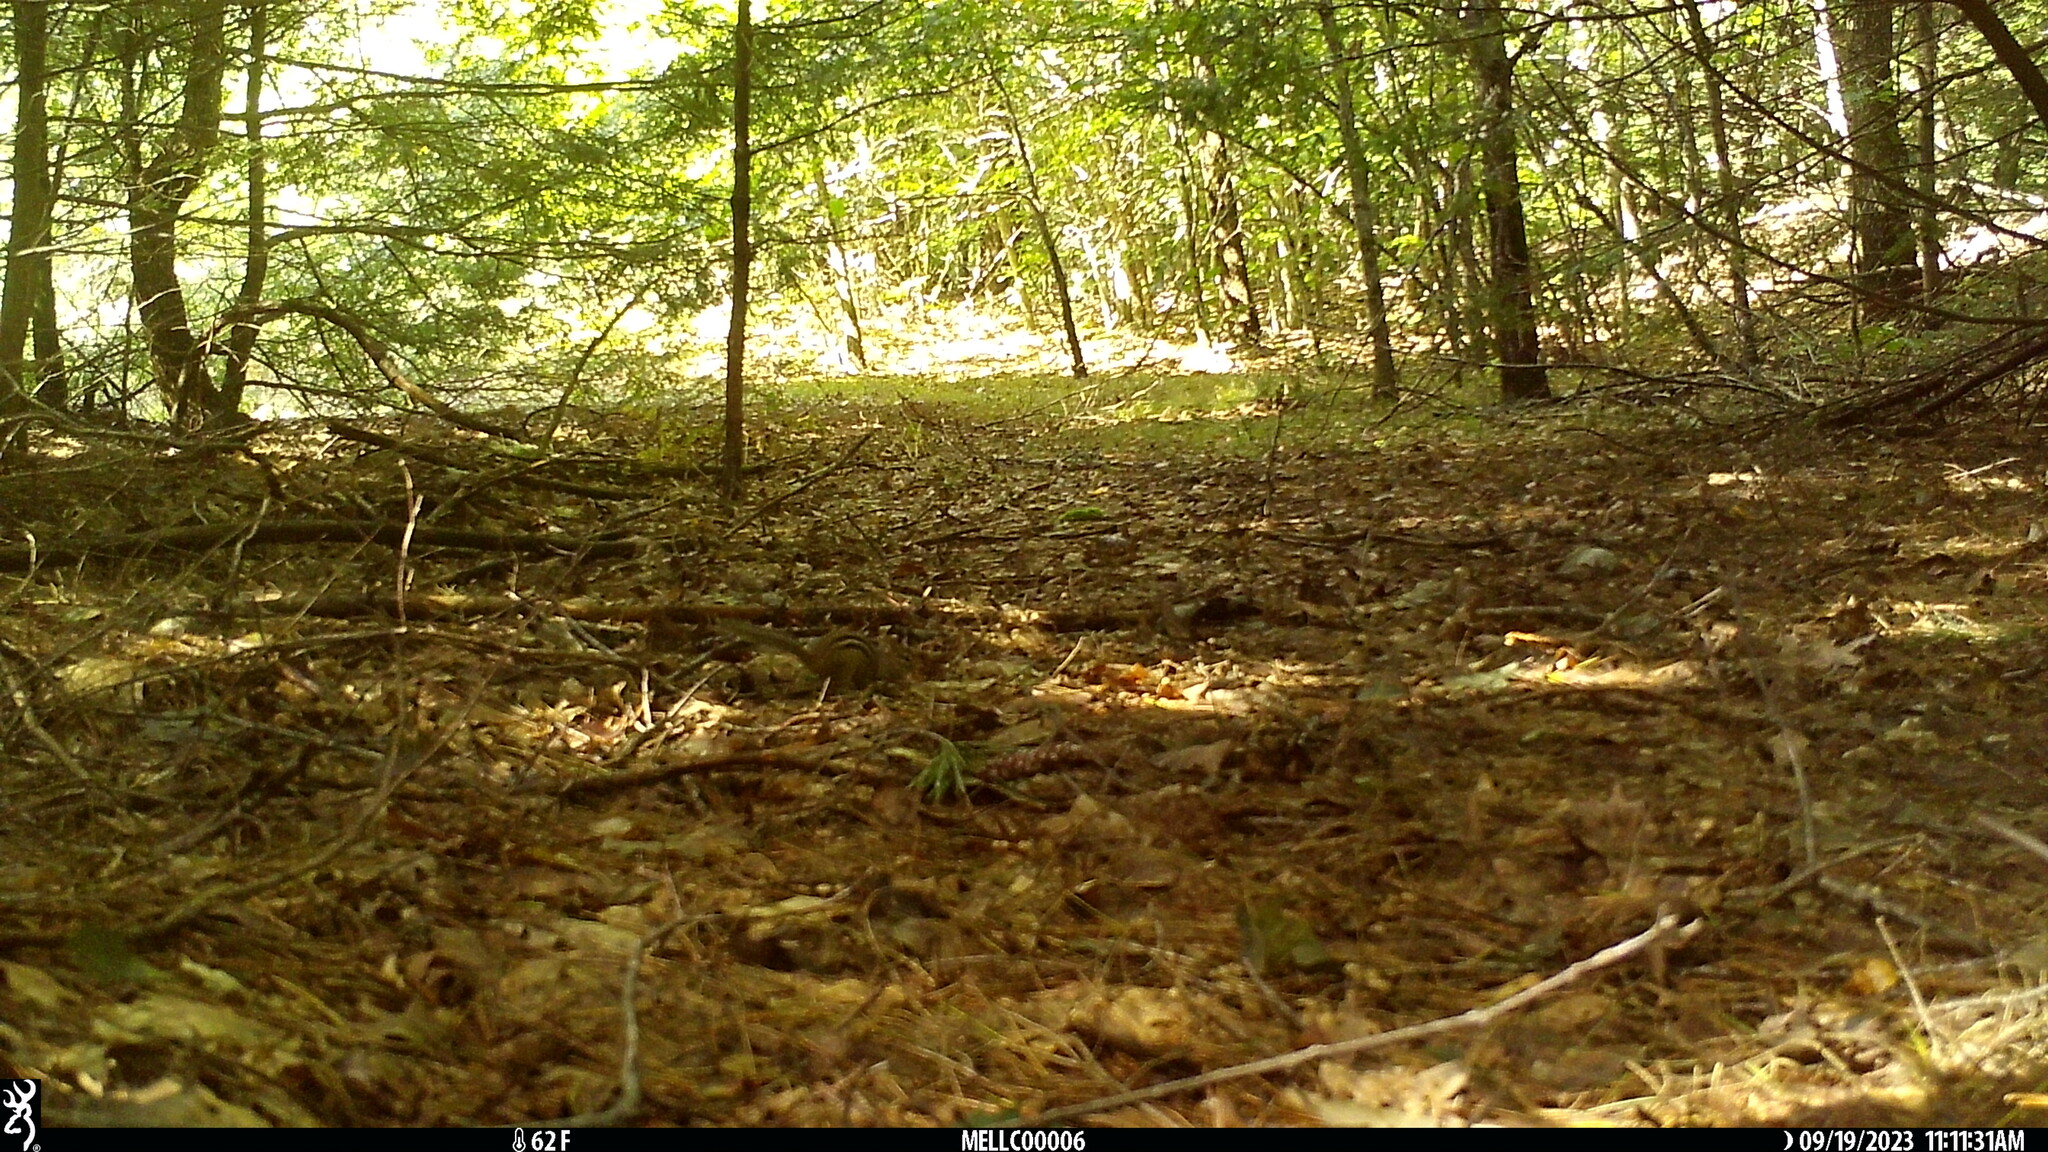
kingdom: Animalia
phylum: Chordata
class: Mammalia
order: Rodentia
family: Sciuridae
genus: Tamias
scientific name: Tamias striatus
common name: Eastern chipmunk
